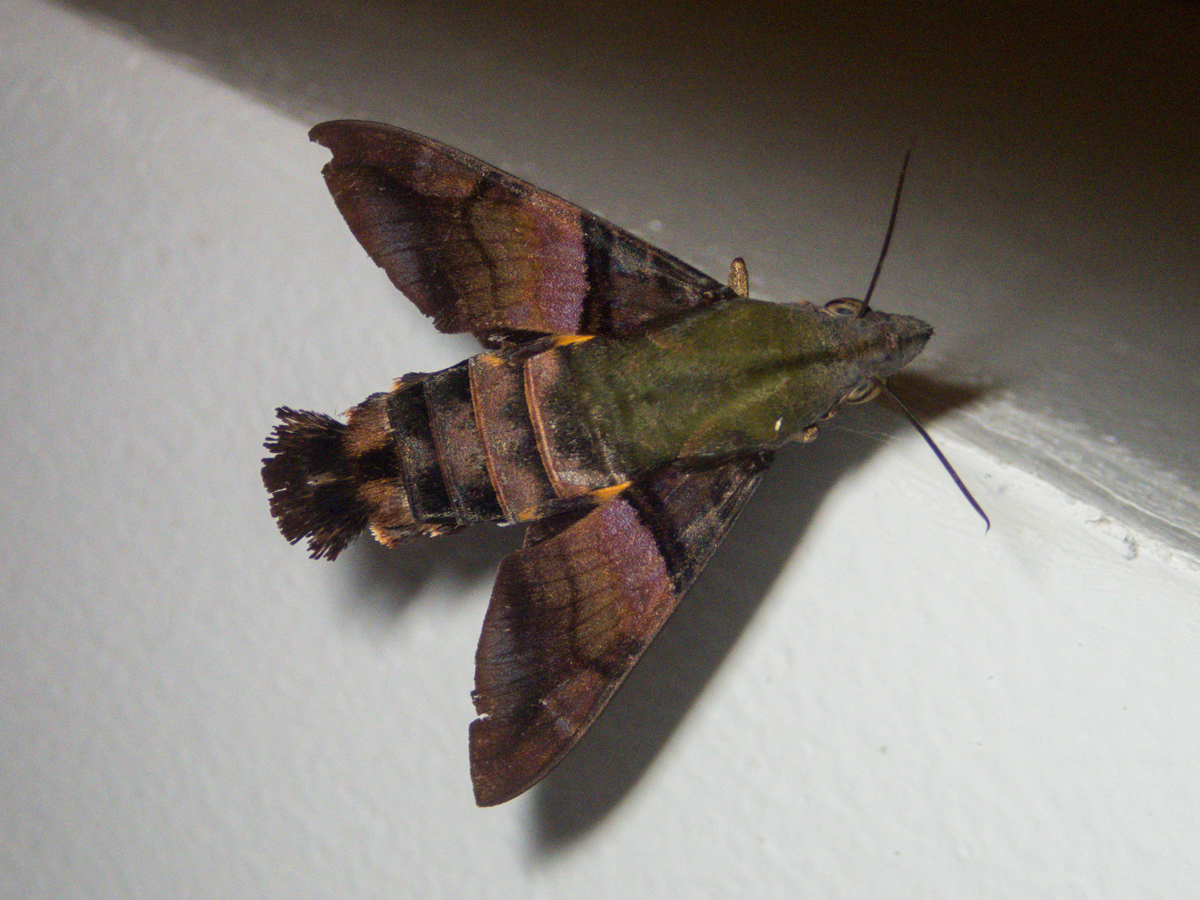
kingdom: Animalia
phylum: Arthropoda
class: Insecta
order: Lepidoptera
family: Sphingidae
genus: Macroglossum
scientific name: Macroglossum faro
